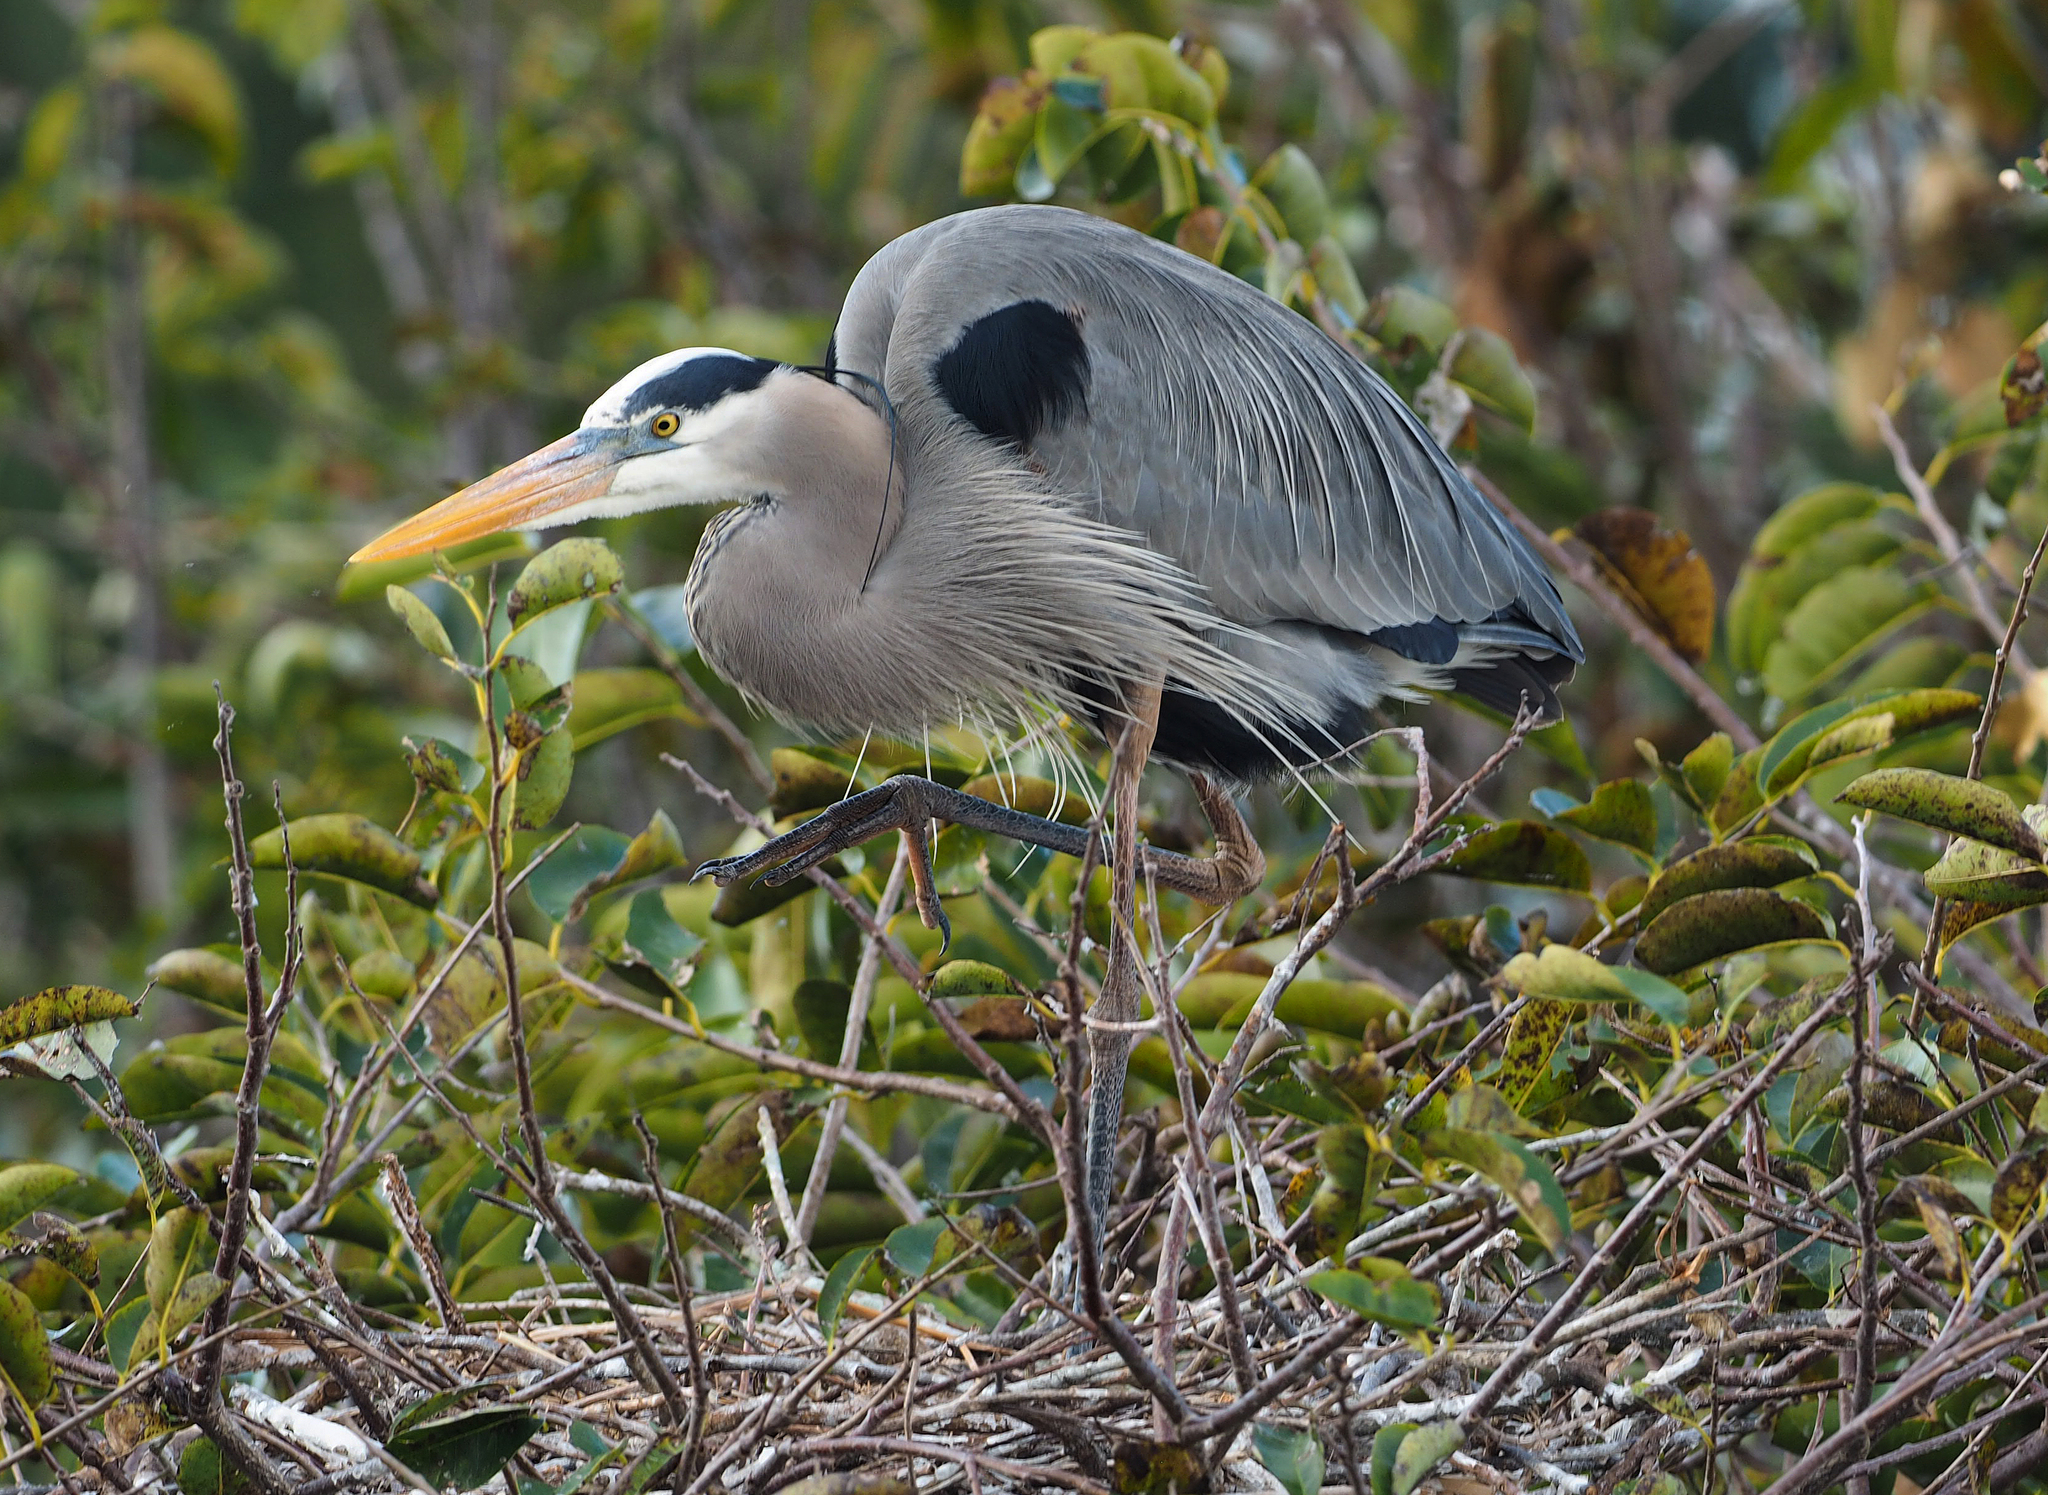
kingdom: Animalia
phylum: Chordata
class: Aves
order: Pelecaniformes
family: Ardeidae
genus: Ardea
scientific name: Ardea herodias
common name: Great blue heron
